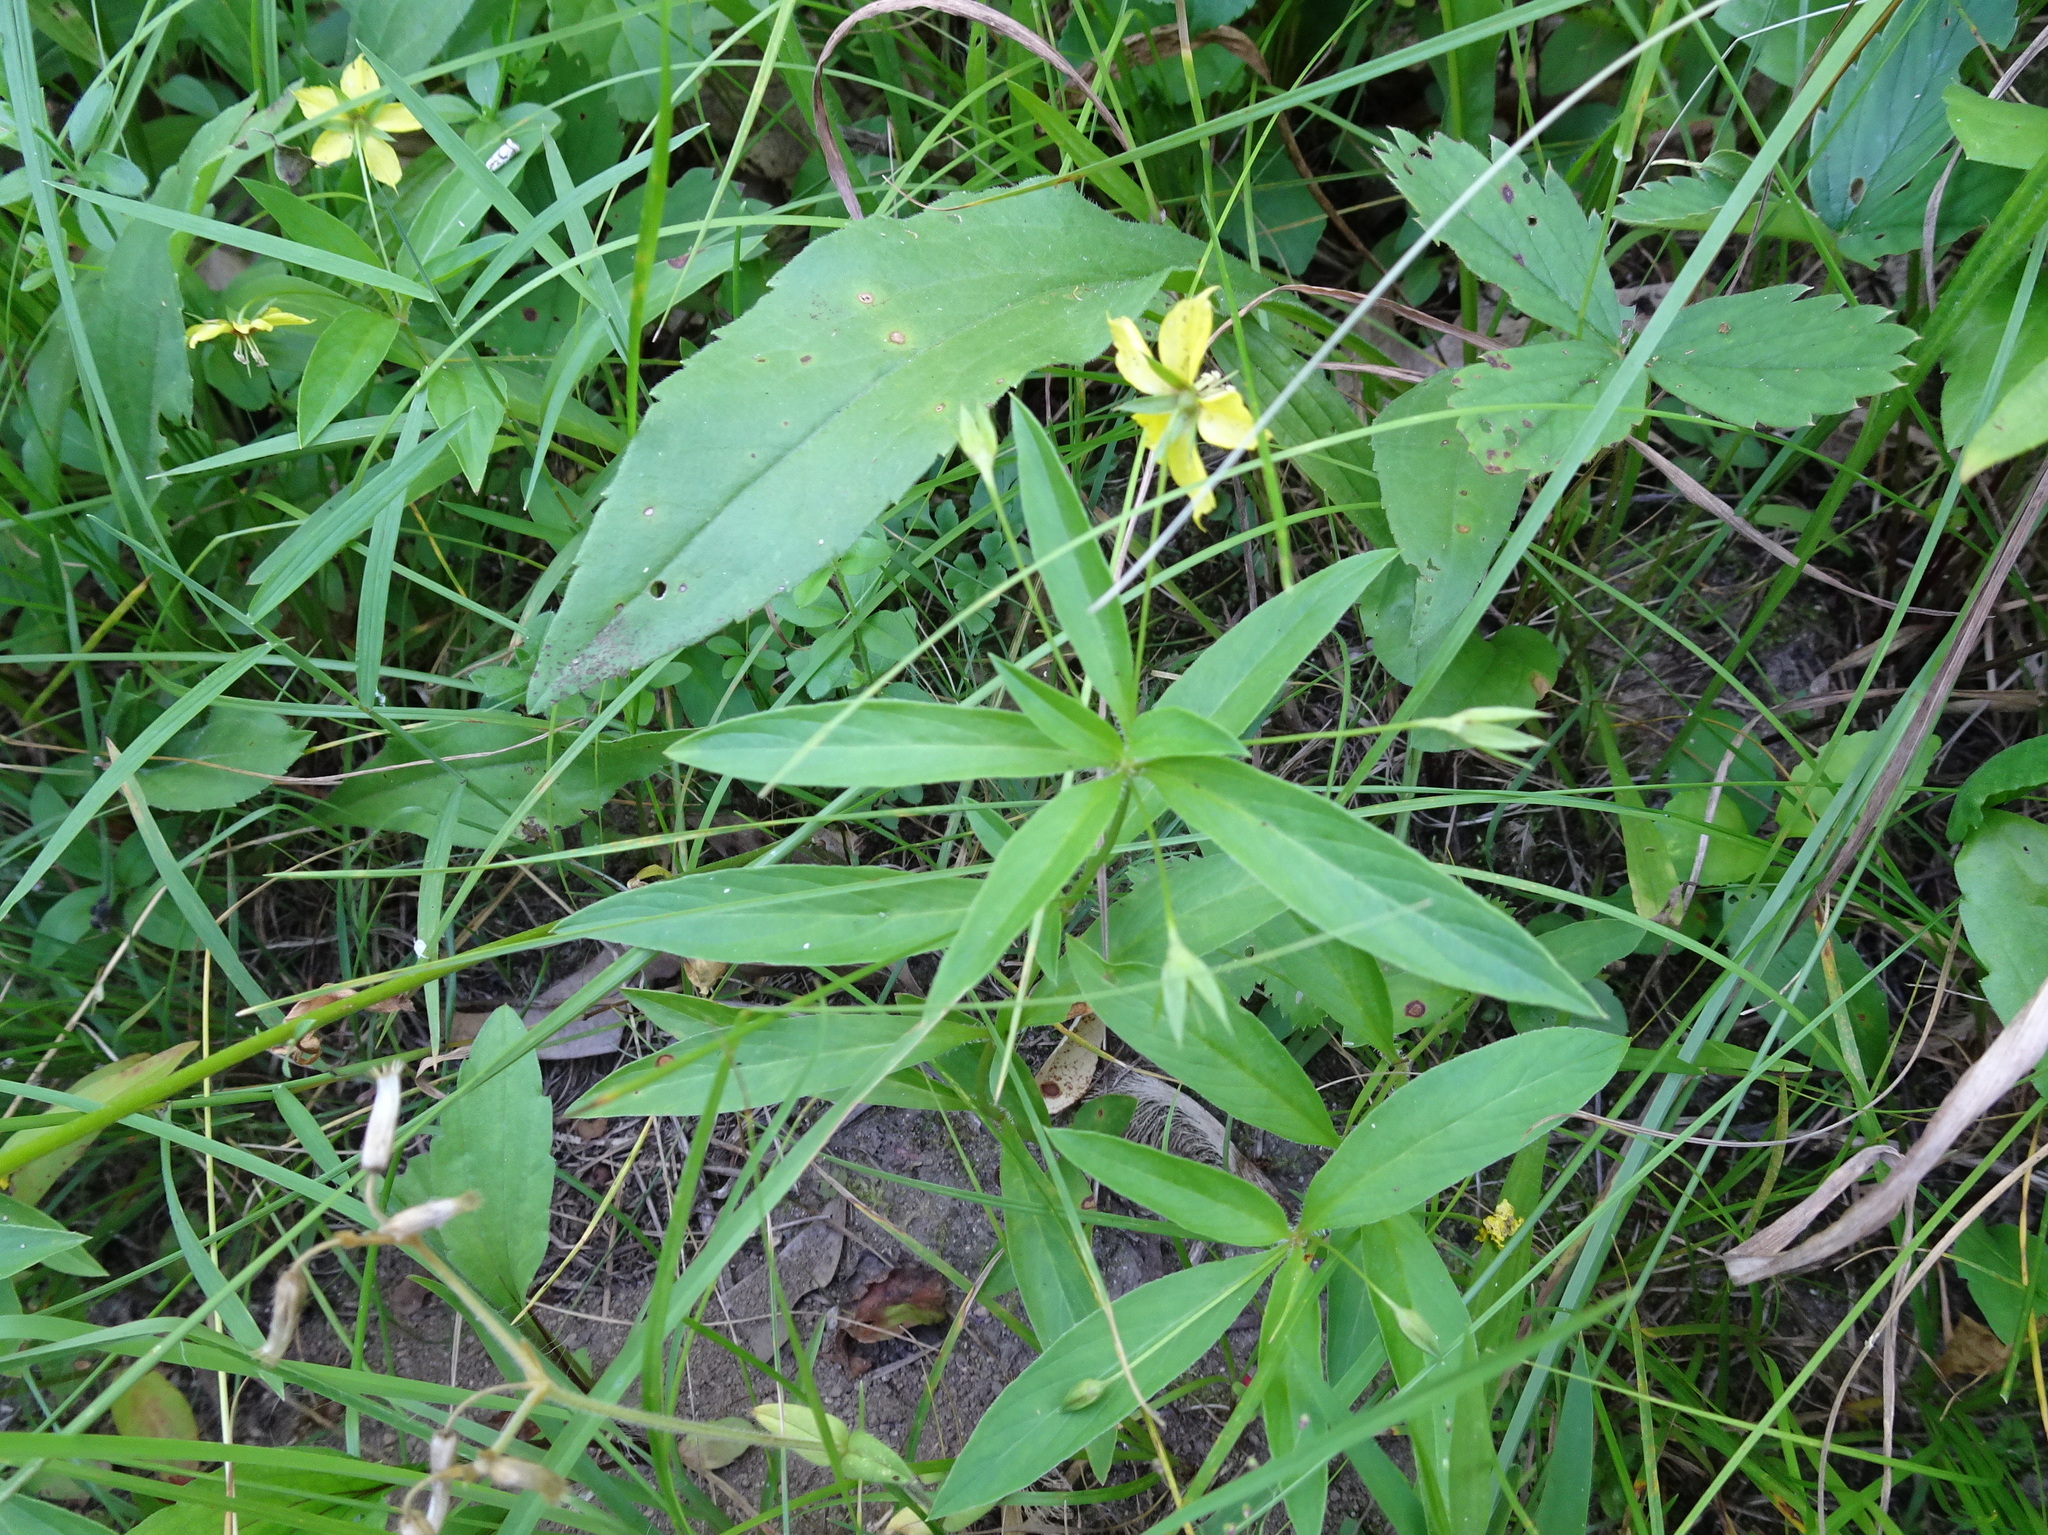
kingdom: Plantae
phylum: Tracheophyta
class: Magnoliopsida
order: Ericales
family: Primulaceae
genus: Lysimachia
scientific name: Lysimachia lanceolata
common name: Lance-leaved loosestrife
